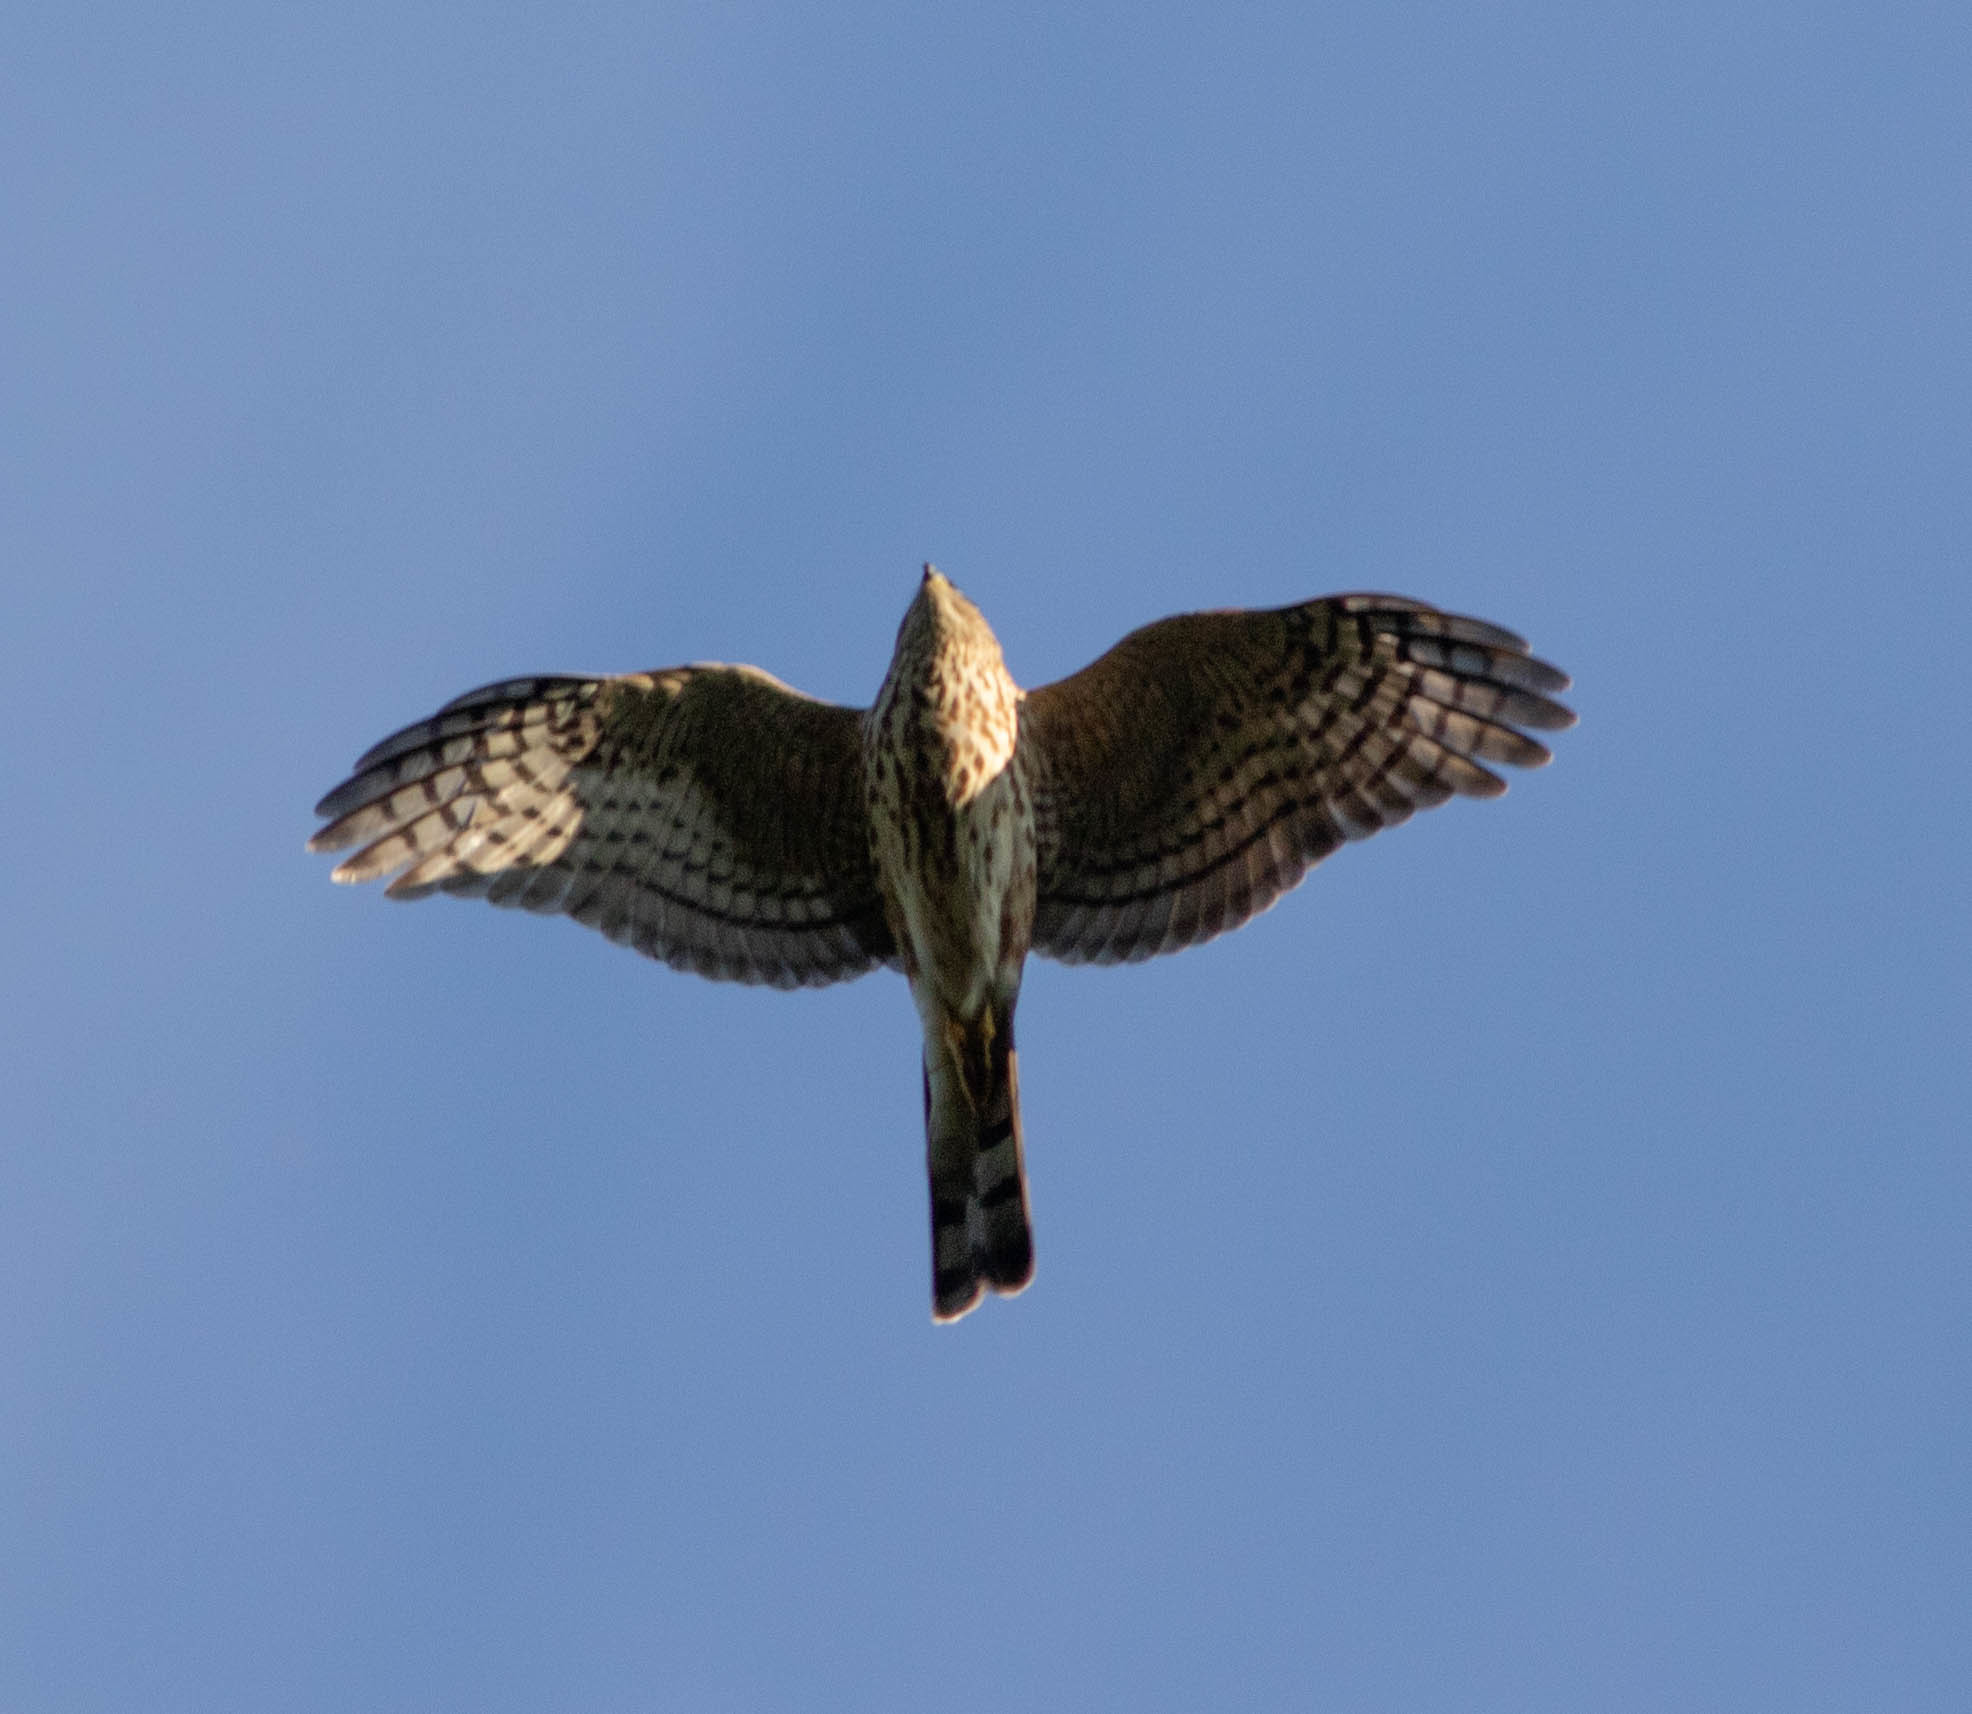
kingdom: Animalia
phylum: Chordata
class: Aves
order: Accipitriformes
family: Accipitridae
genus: Accipiter
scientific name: Accipiter striatus
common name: Sharp-shinned hawk
